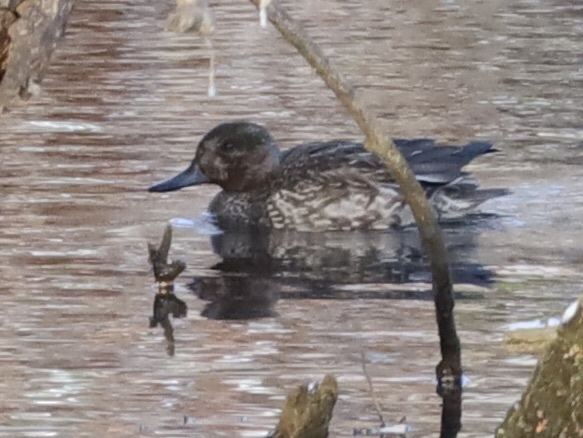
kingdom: Animalia
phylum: Chordata
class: Aves
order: Anseriformes
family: Anatidae
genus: Anas
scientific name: Anas crecca
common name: Eurasian teal
